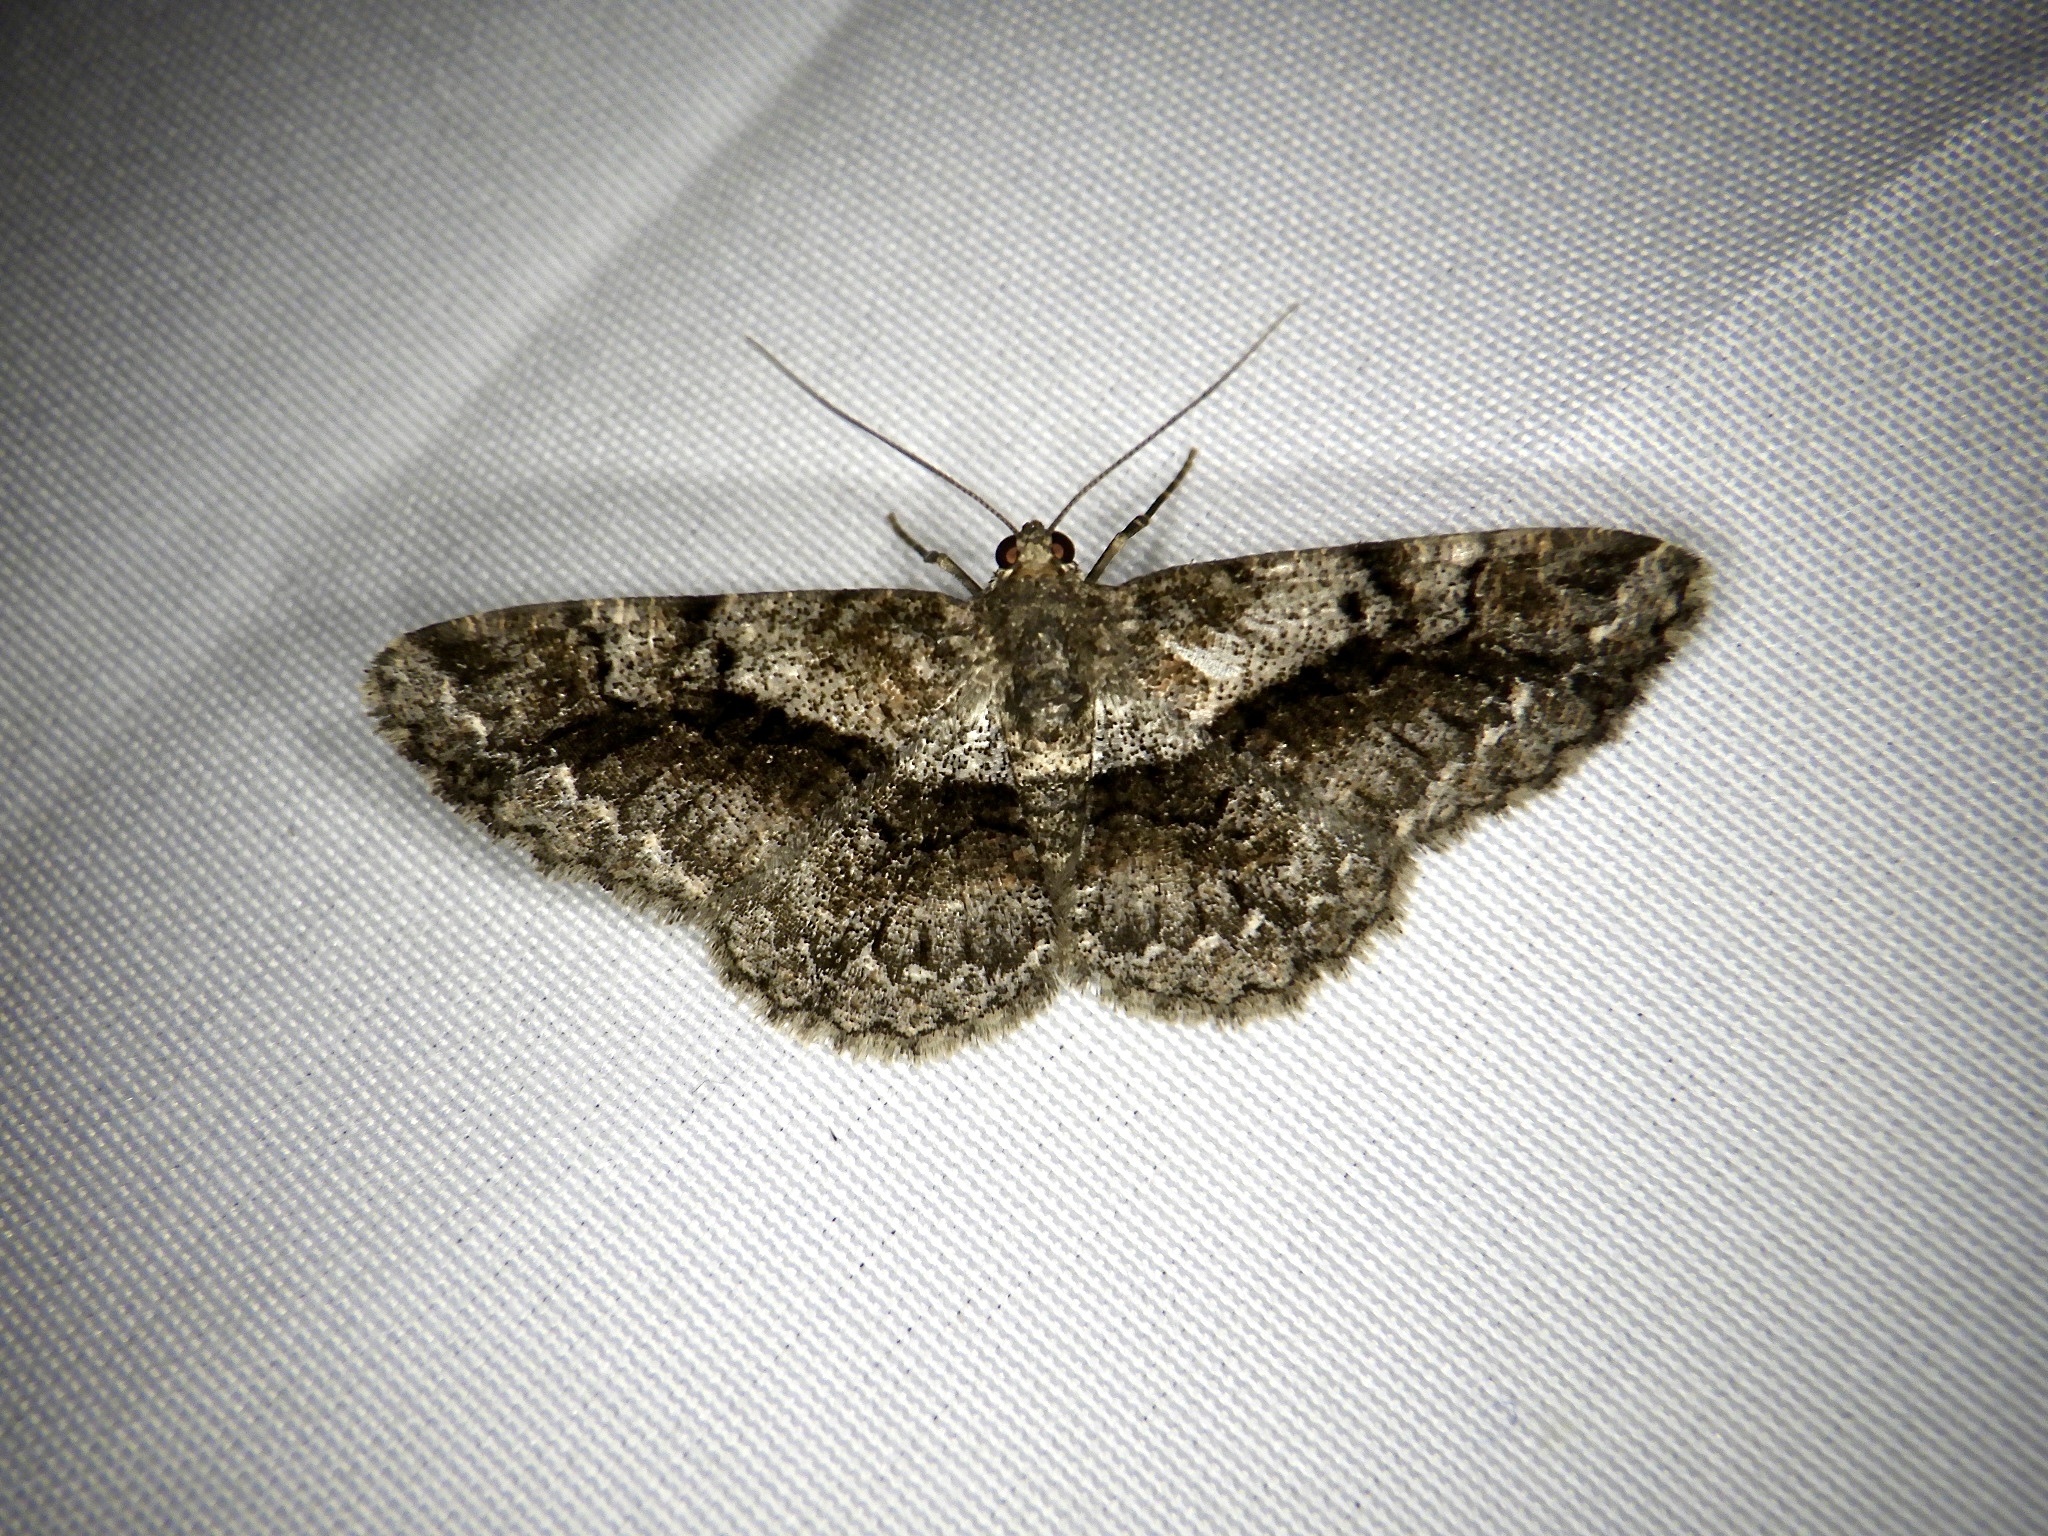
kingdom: Animalia
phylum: Arthropoda
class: Insecta
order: Lepidoptera
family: Geometridae
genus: Satoblephara
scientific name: Satoblephara parvularia
